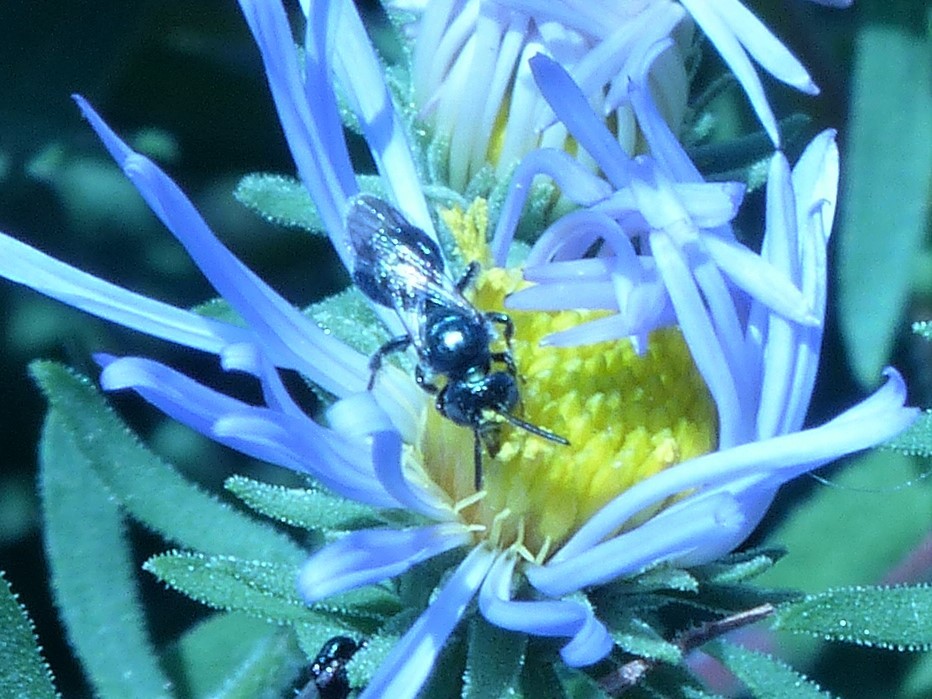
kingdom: Animalia
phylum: Arthropoda
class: Insecta
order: Hymenoptera
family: Apidae
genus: Zadontomerus
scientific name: Zadontomerus
